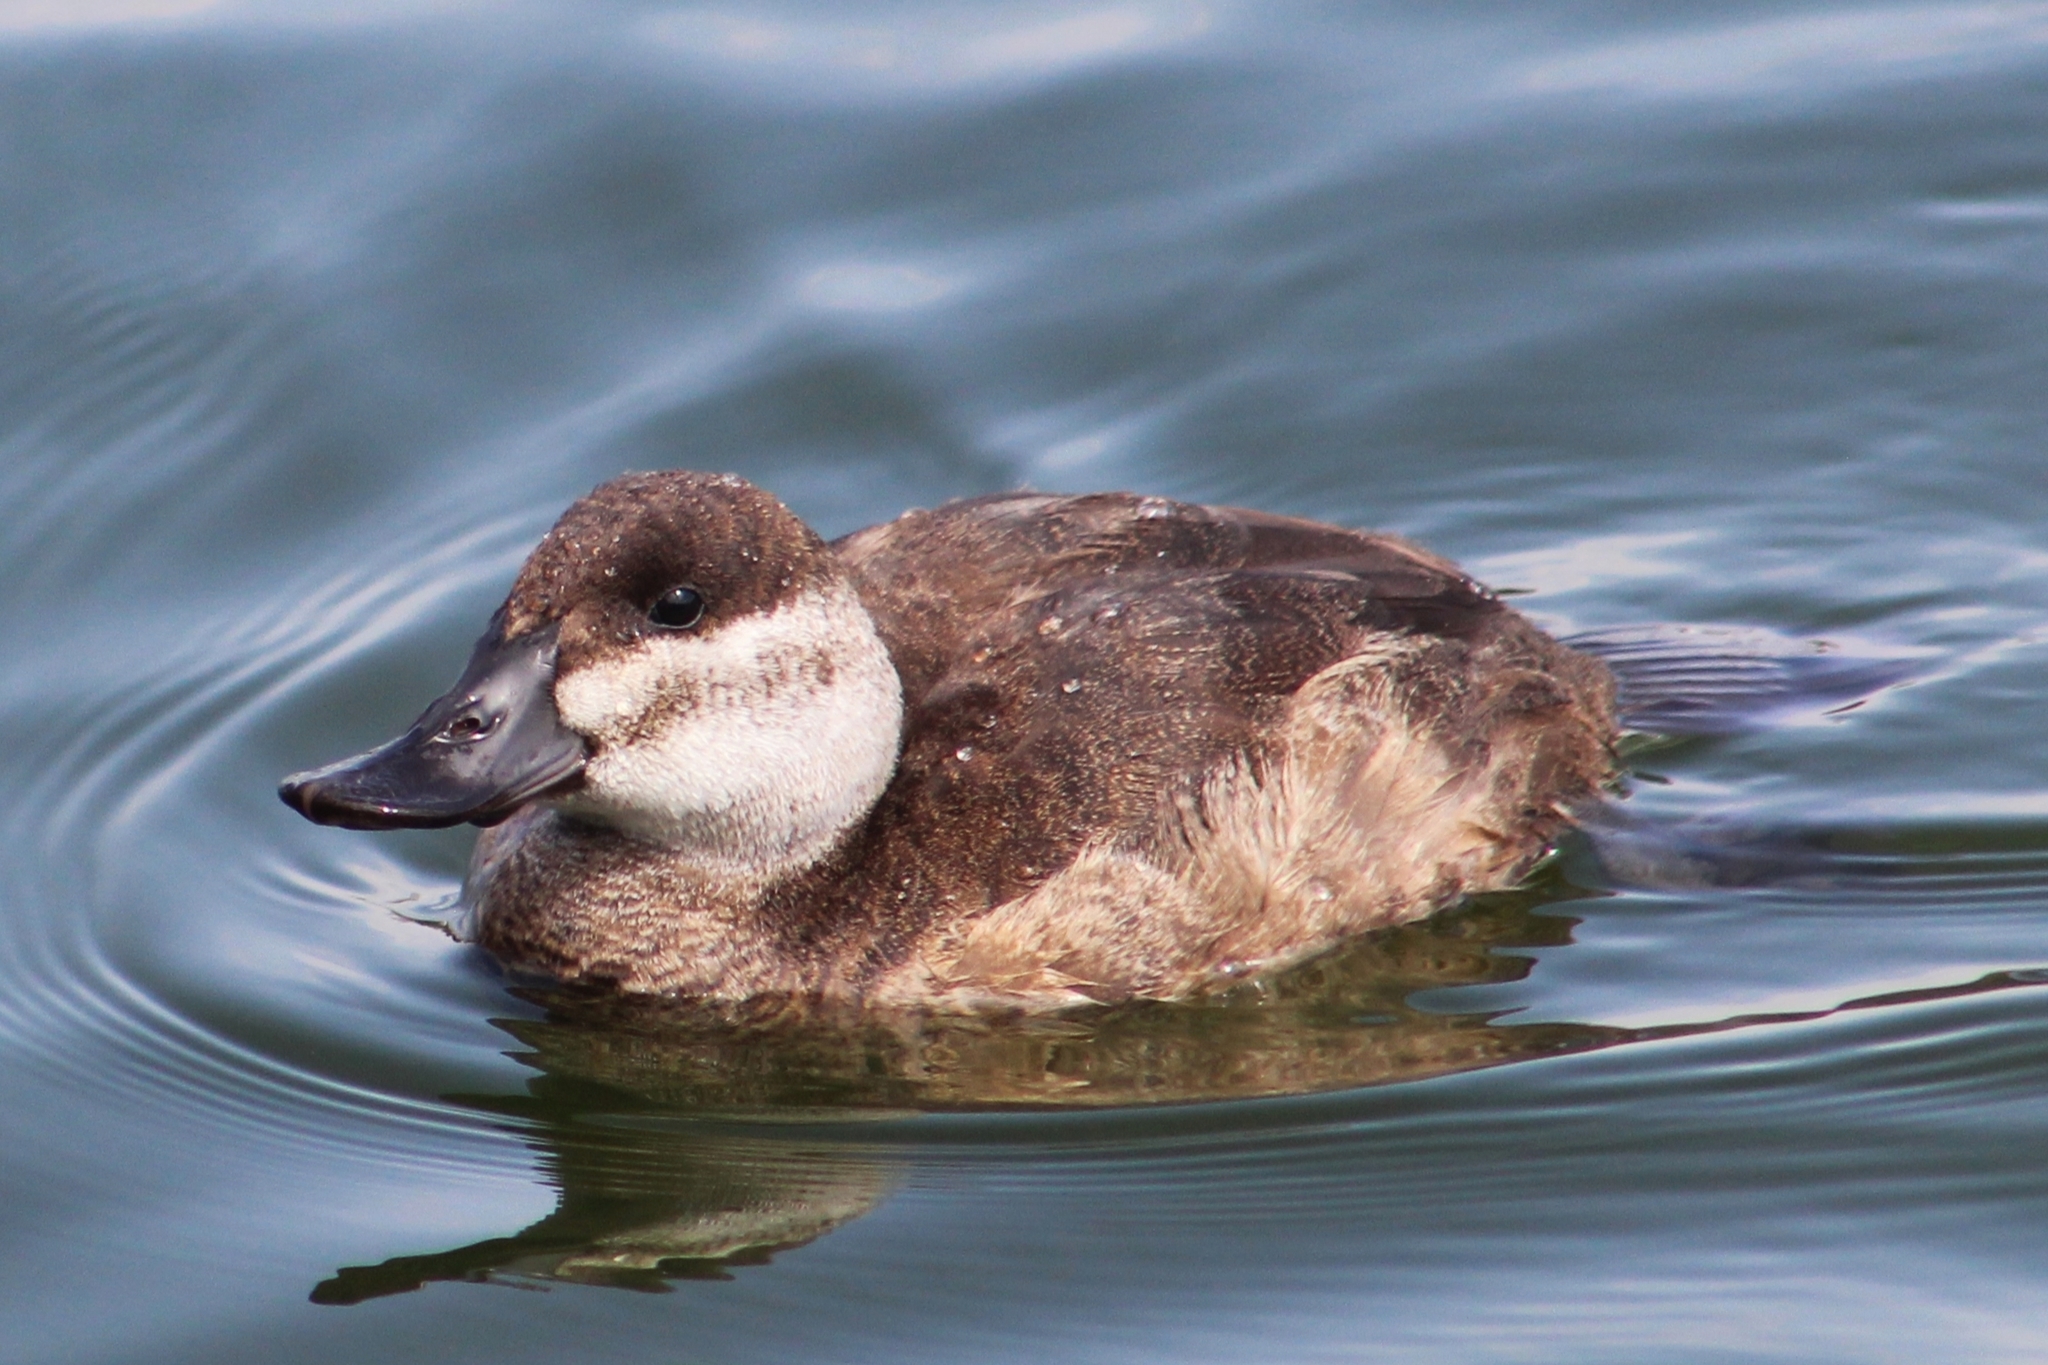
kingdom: Animalia
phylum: Chordata
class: Aves
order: Anseriformes
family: Anatidae
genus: Oxyura
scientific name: Oxyura jamaicensis
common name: Ruddy duck
